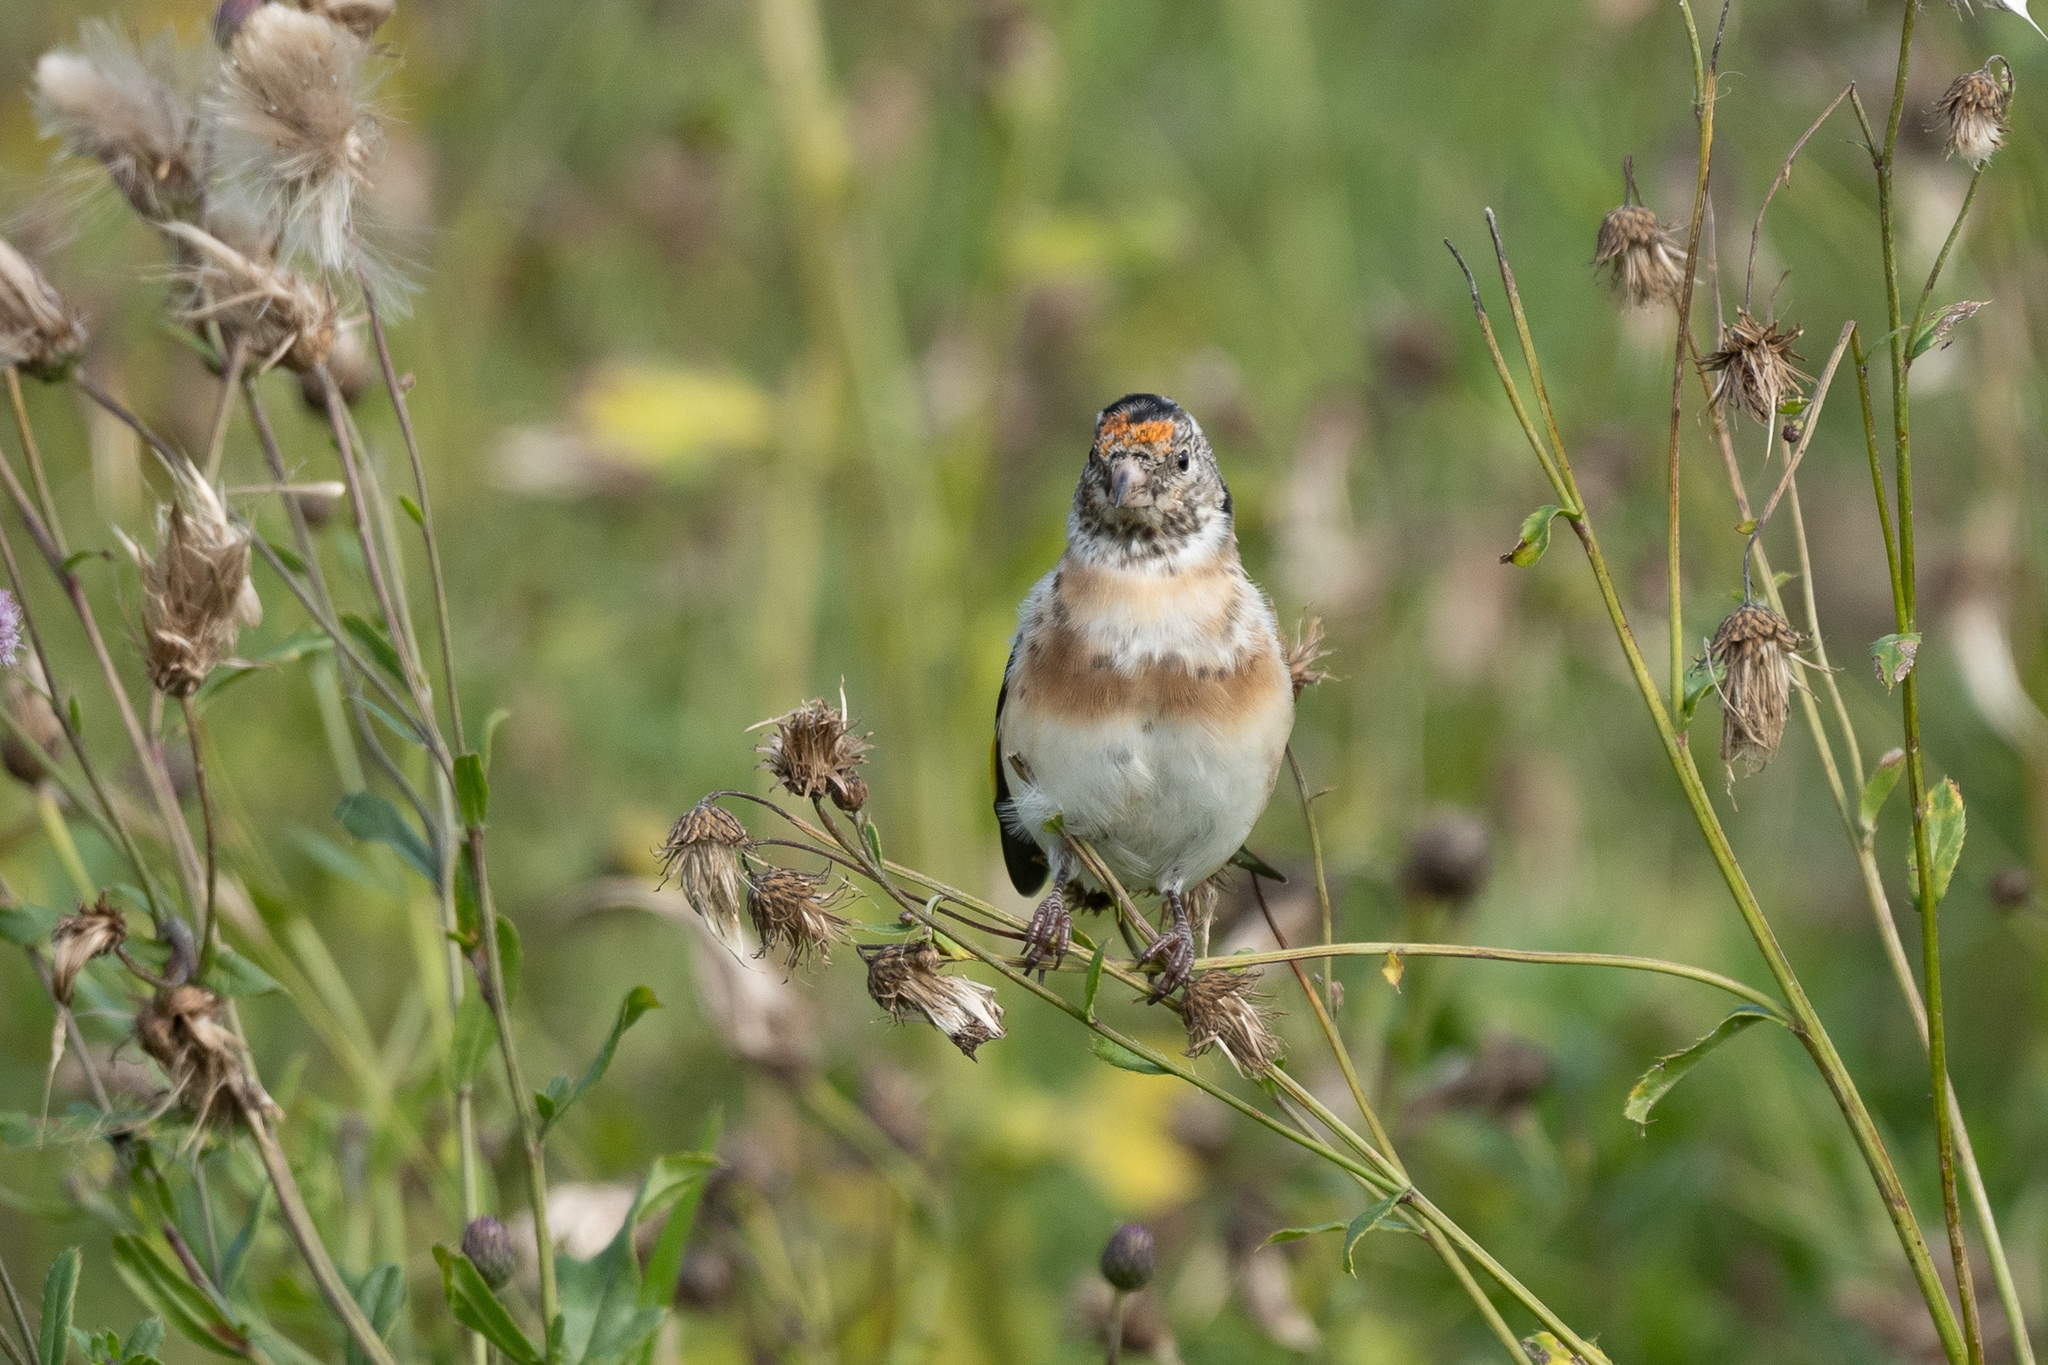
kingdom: Animalia
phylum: Chordata
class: Aves
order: Passeriformes
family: Fringillidae
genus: Carduelis
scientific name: Carduelis carduelis
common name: European goldfinch
